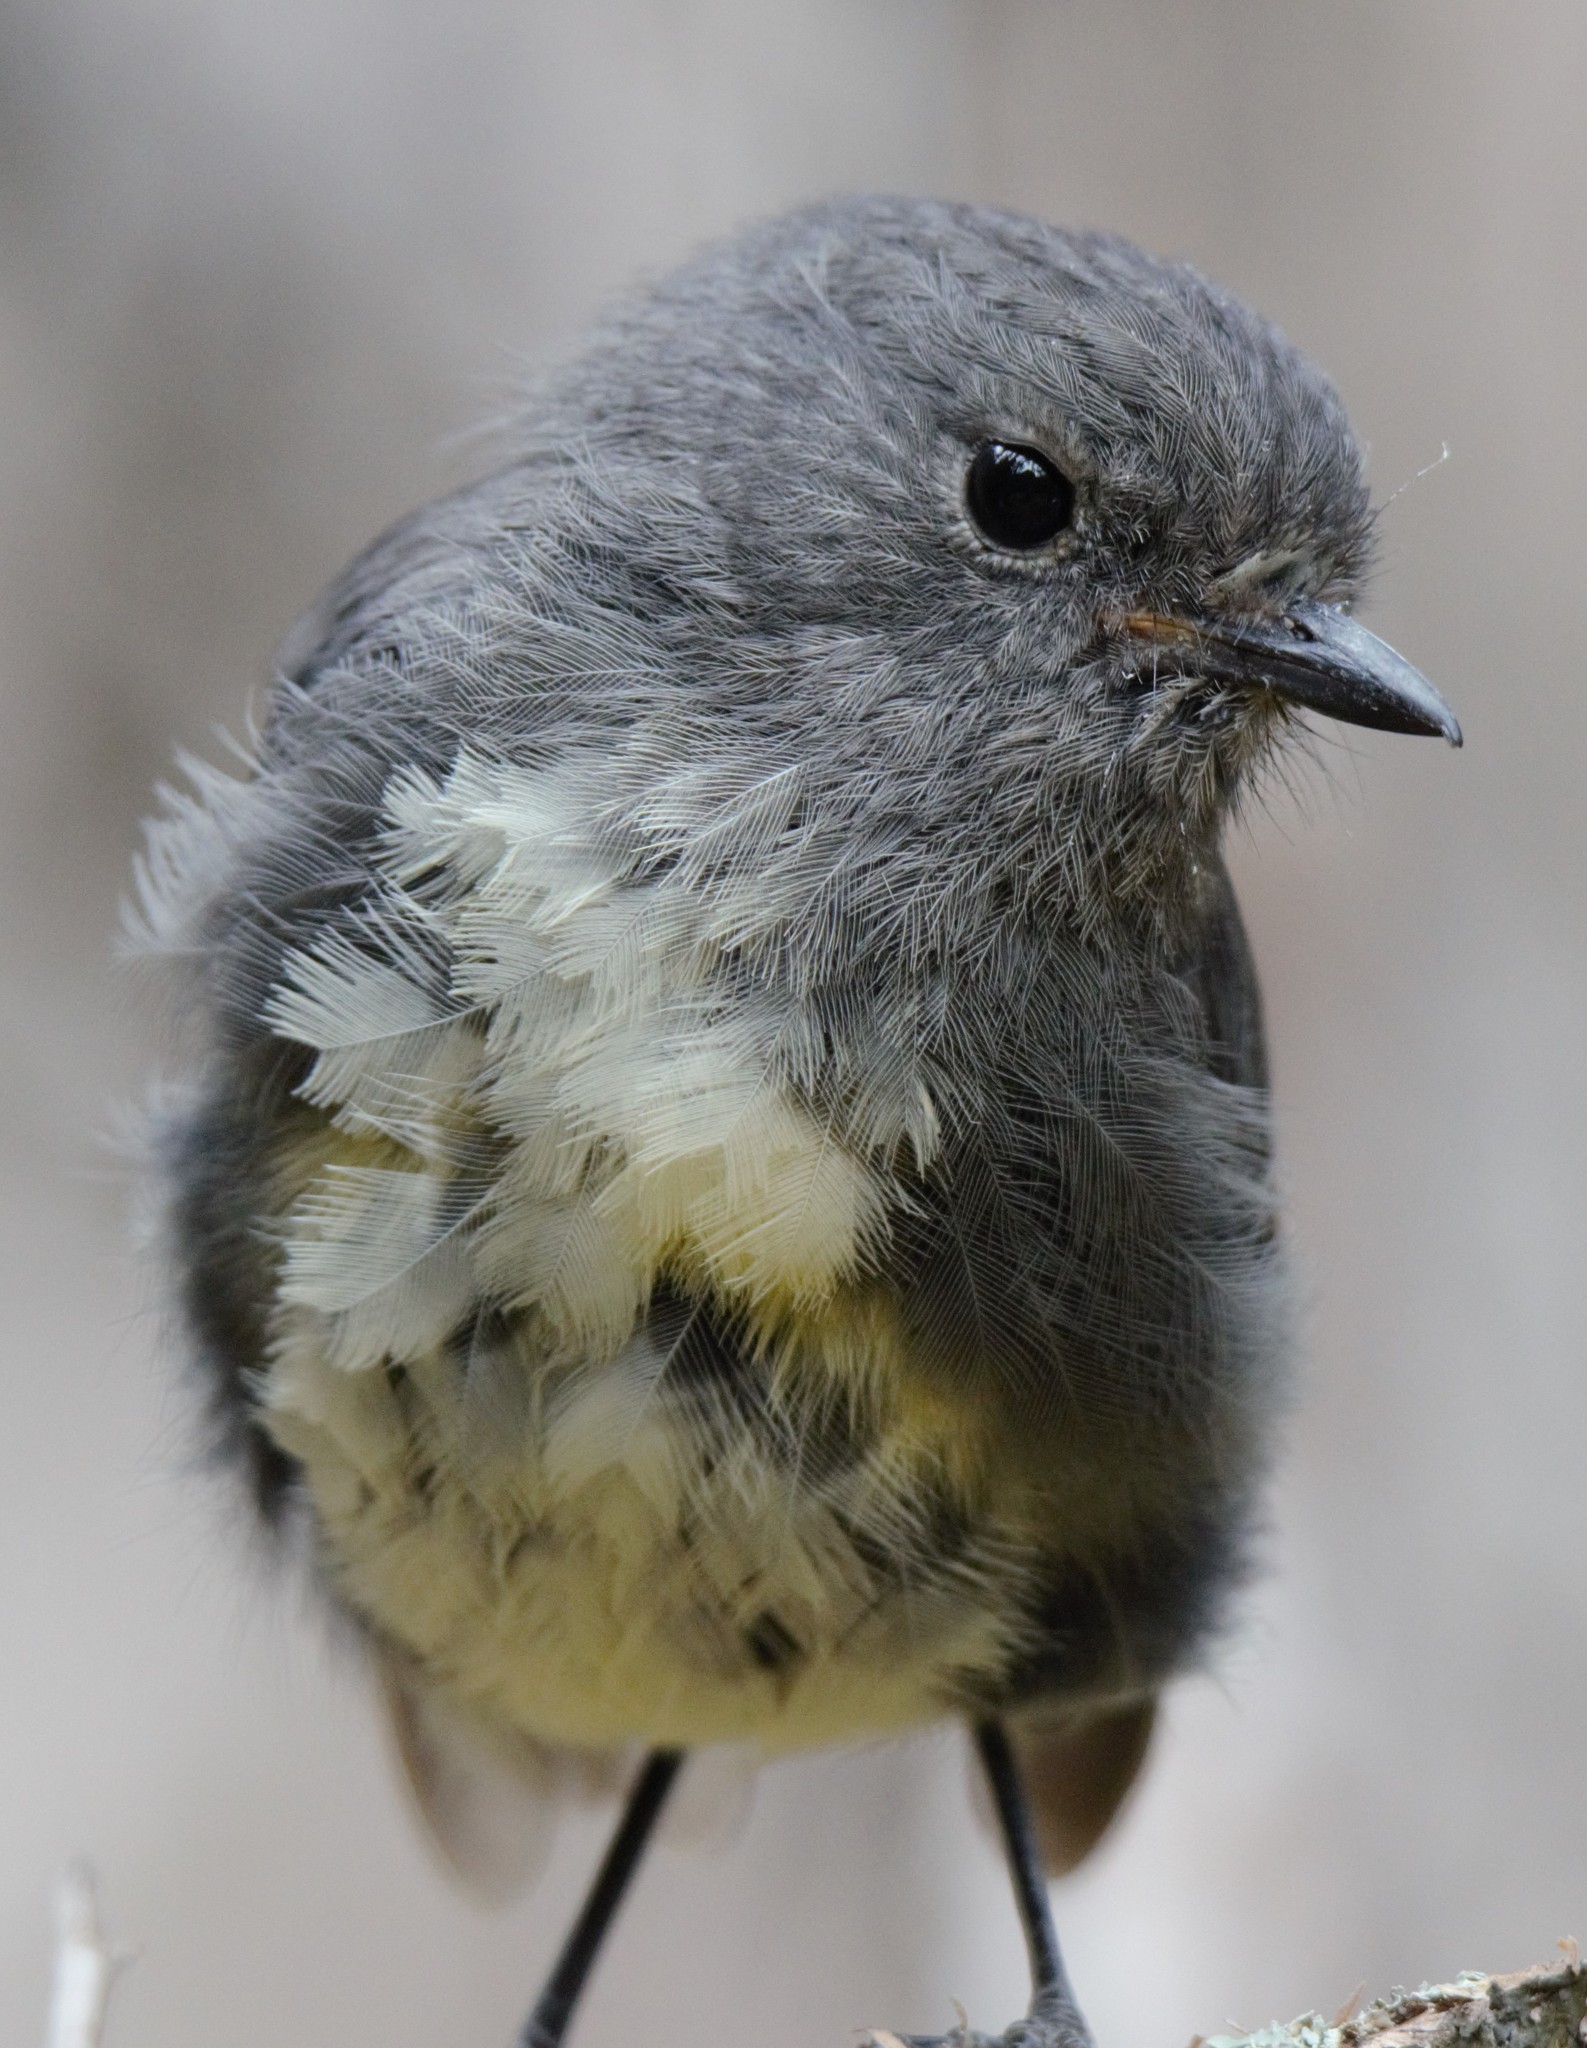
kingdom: Animalia
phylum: Chordata
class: Aves
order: Passeriformes
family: Petroicidae
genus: Petroica
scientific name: Petroica australis
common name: New zealand robin
